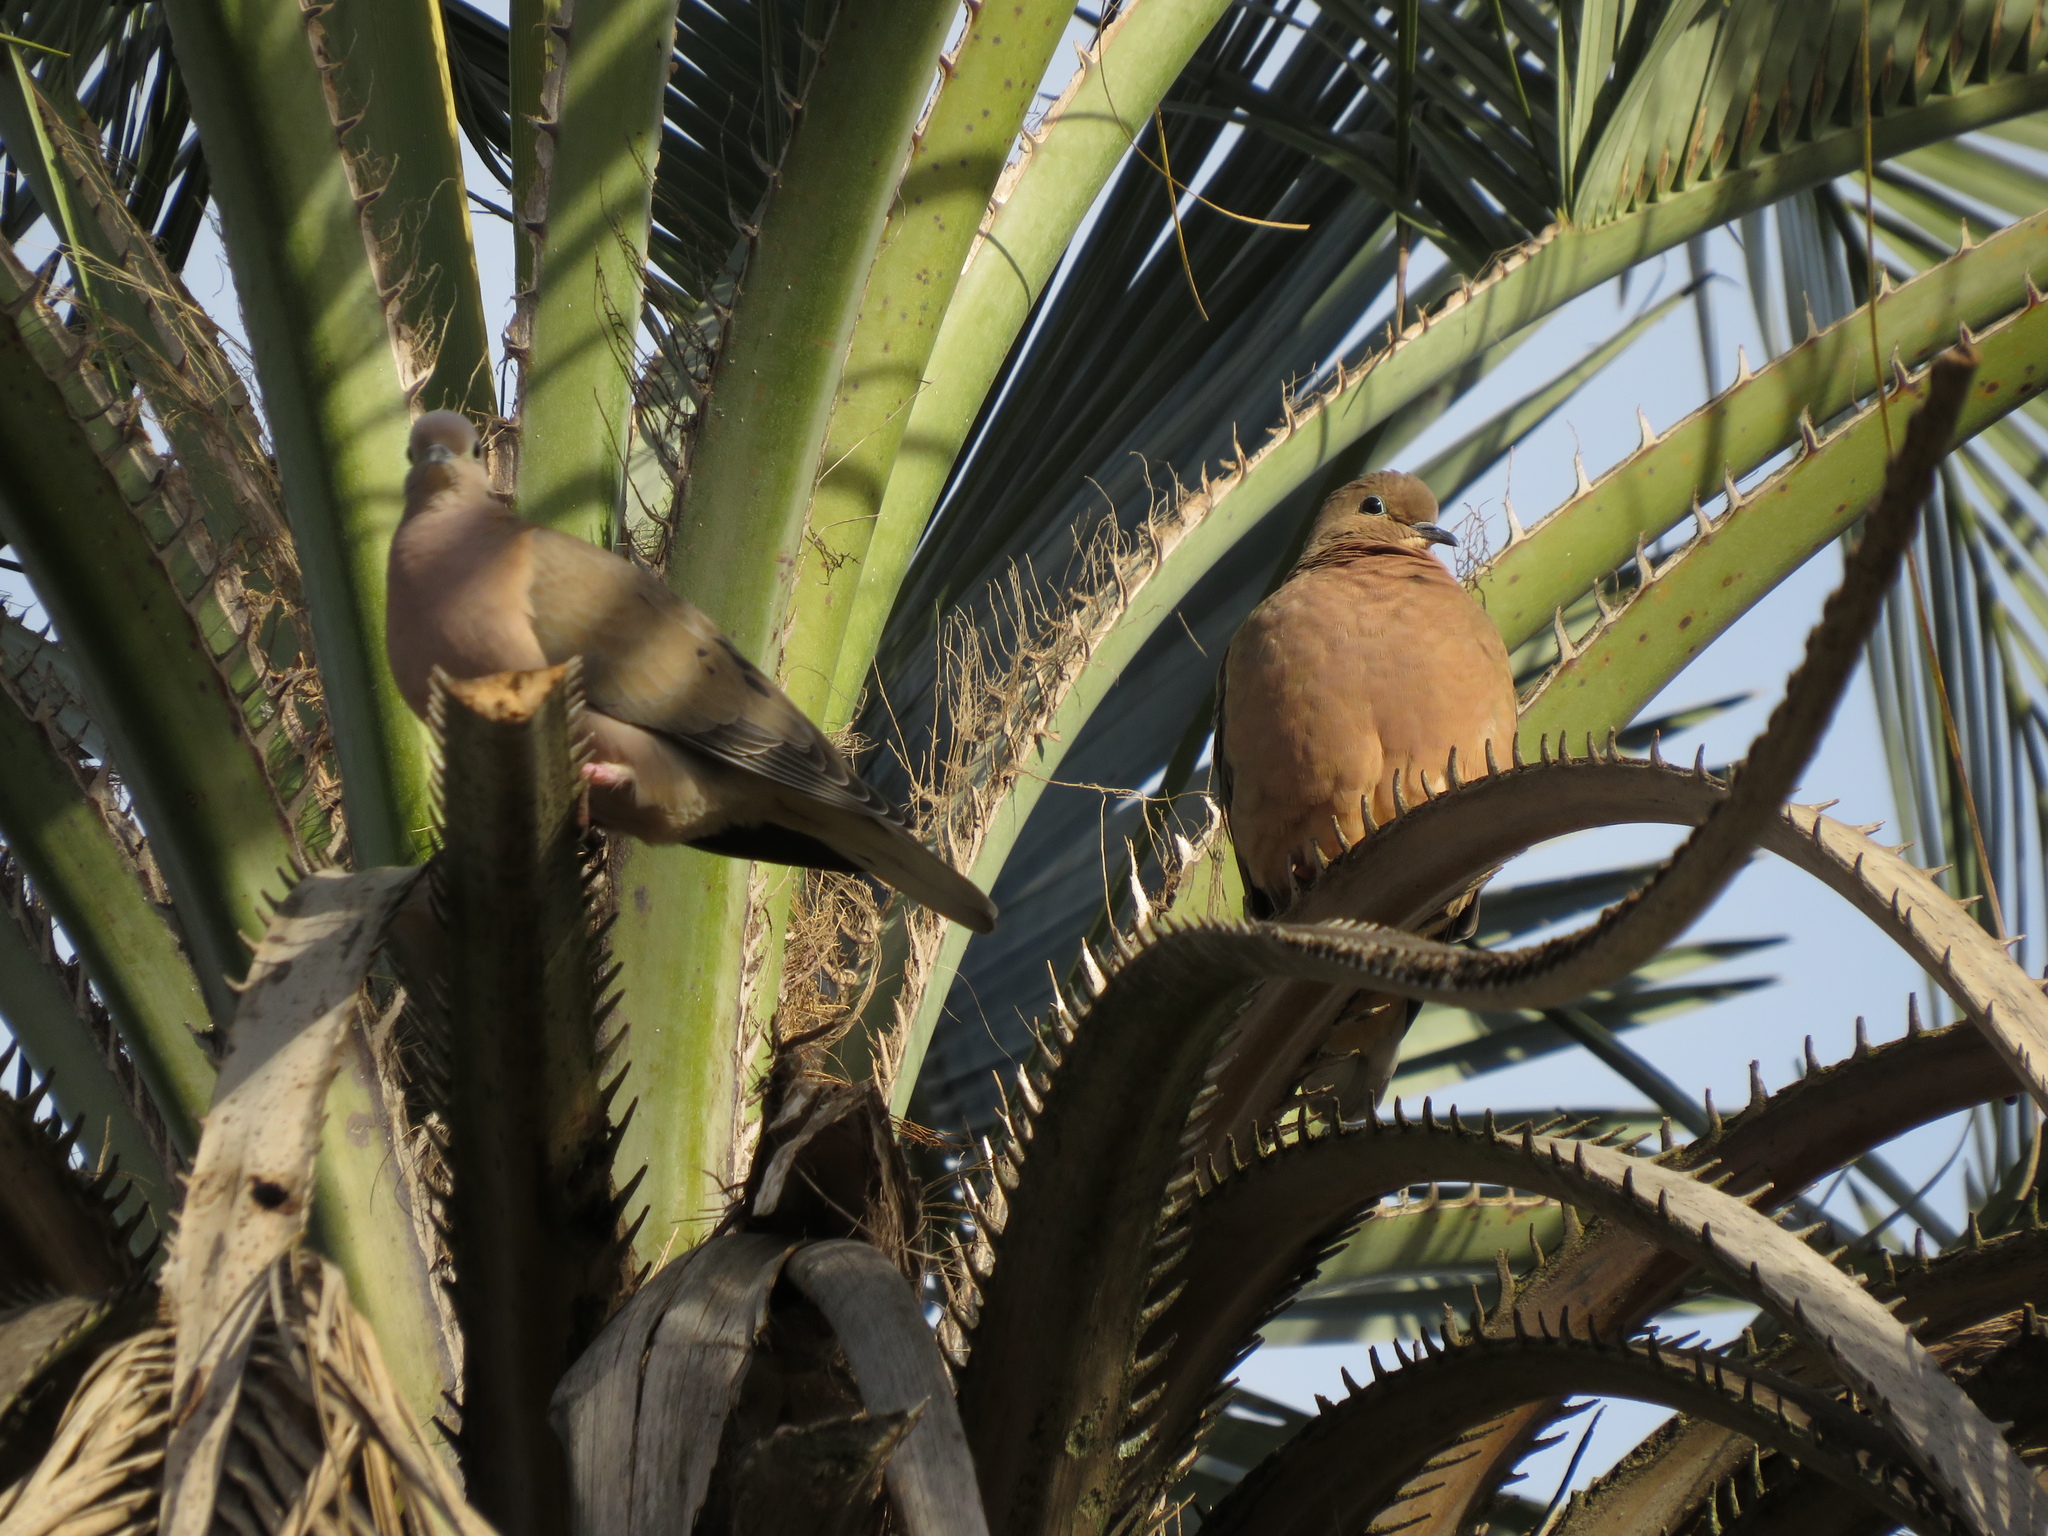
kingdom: Animalia
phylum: Chordata
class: Aves
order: Columbiformes
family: Columbidae
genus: Zenaida
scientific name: Zenaida auriculata
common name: Eared dove
